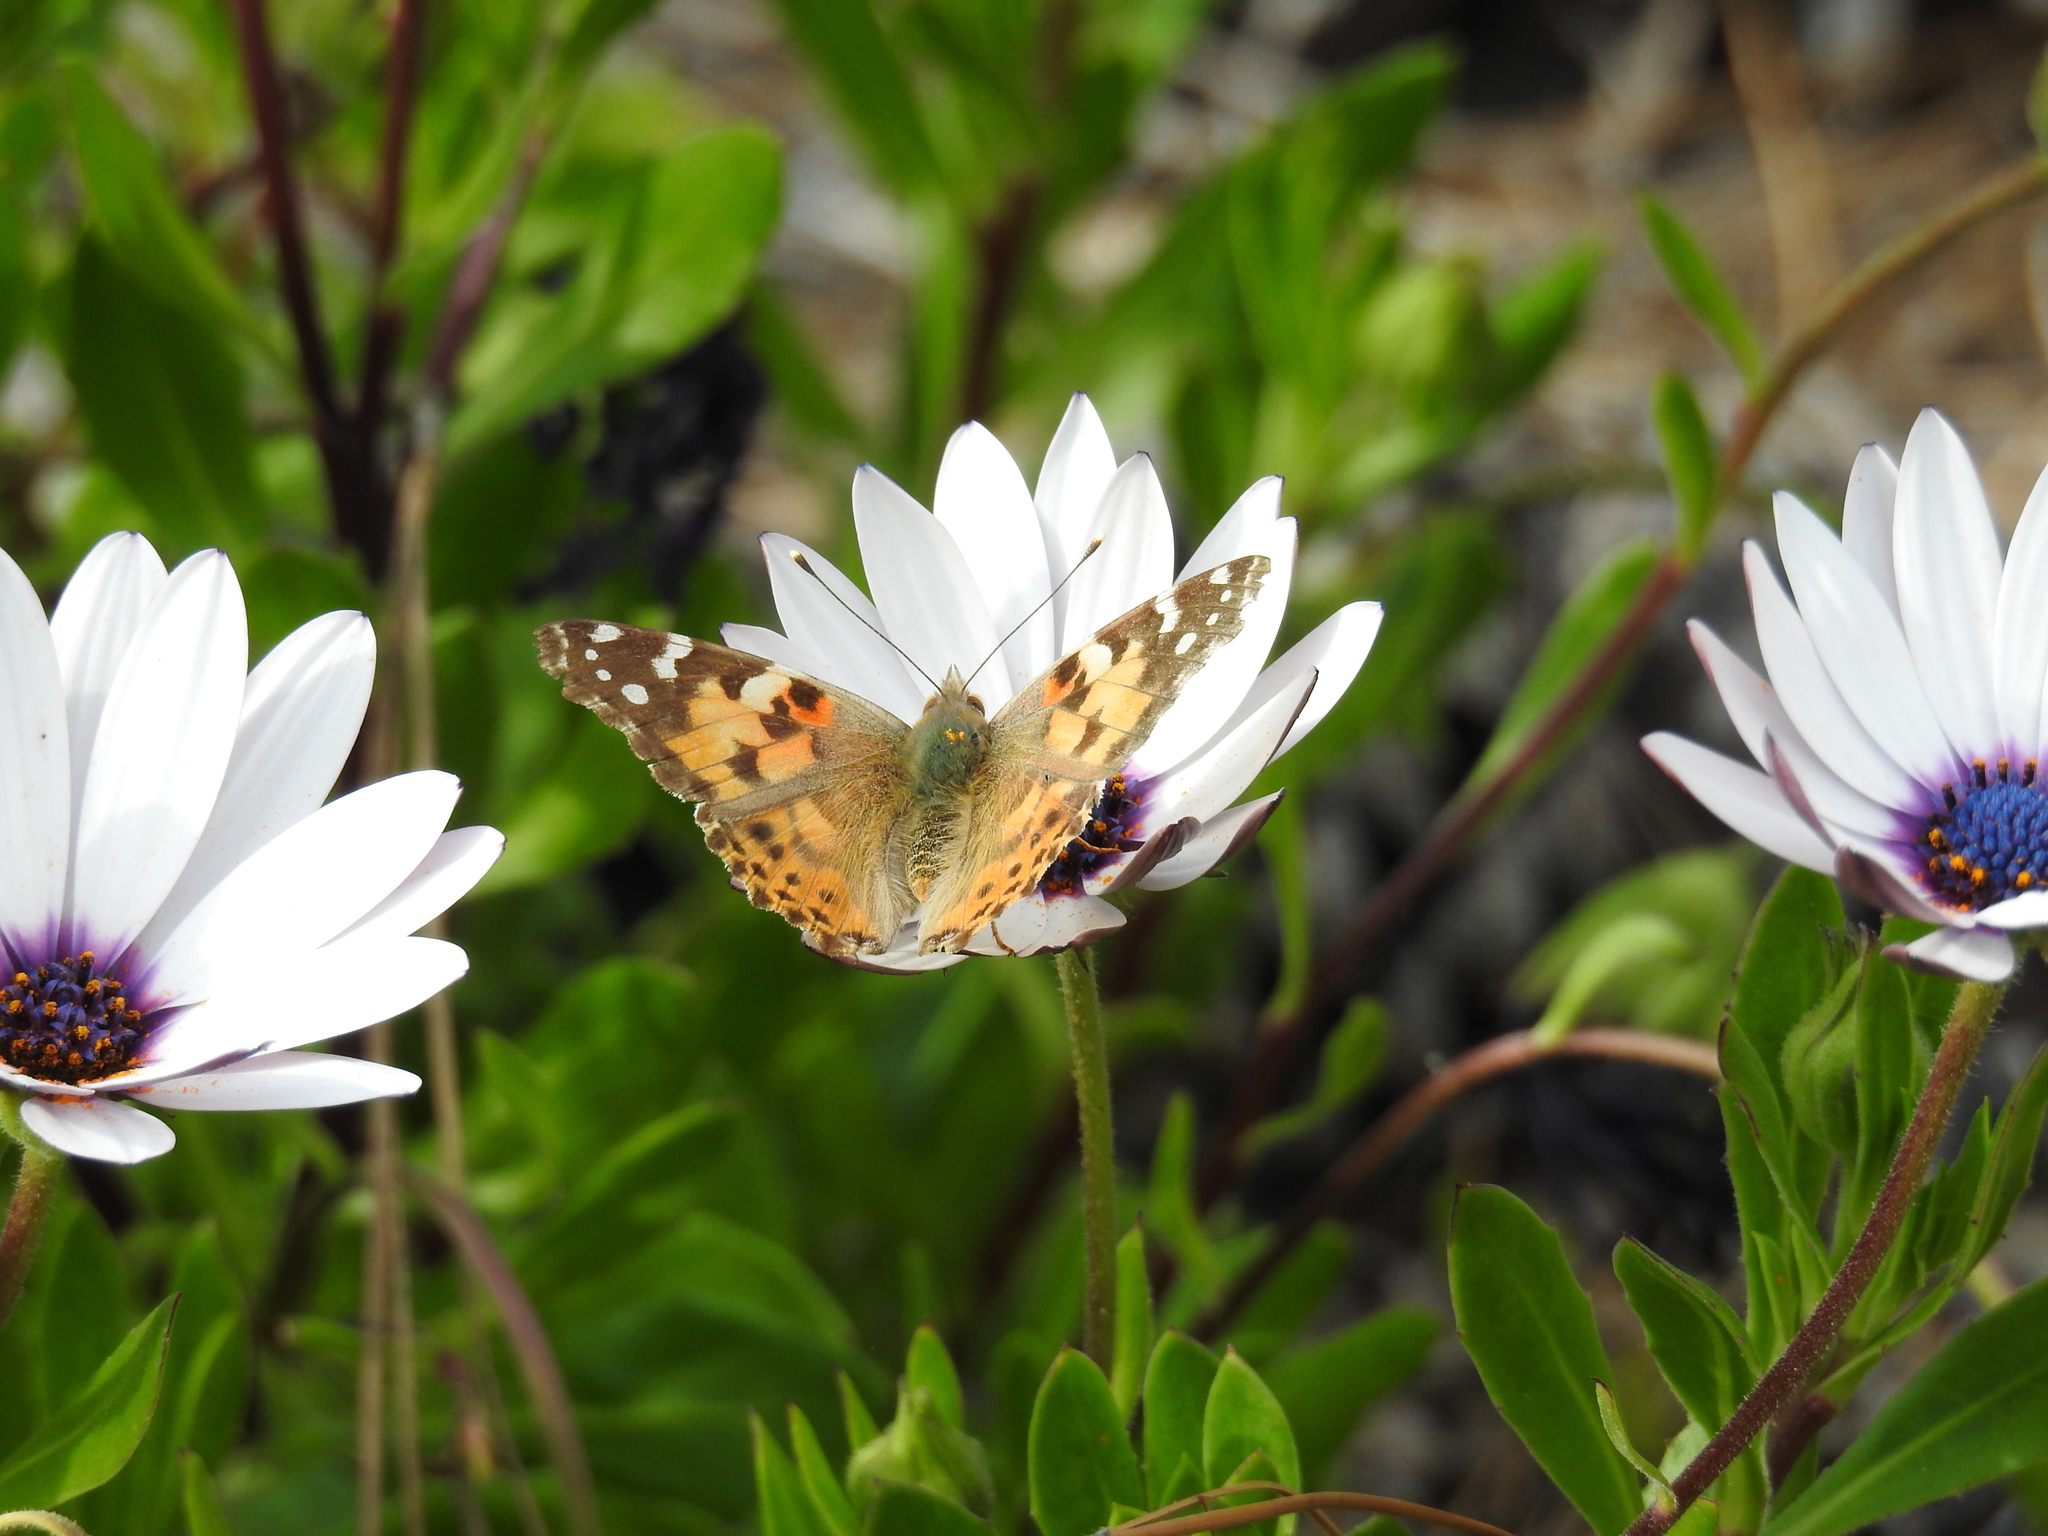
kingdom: Animalia
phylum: Arthropoda
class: Insecta
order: Lepidoptera
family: Nymphalidae
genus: Vanessa
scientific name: Vanessa cardui
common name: Painted lady
